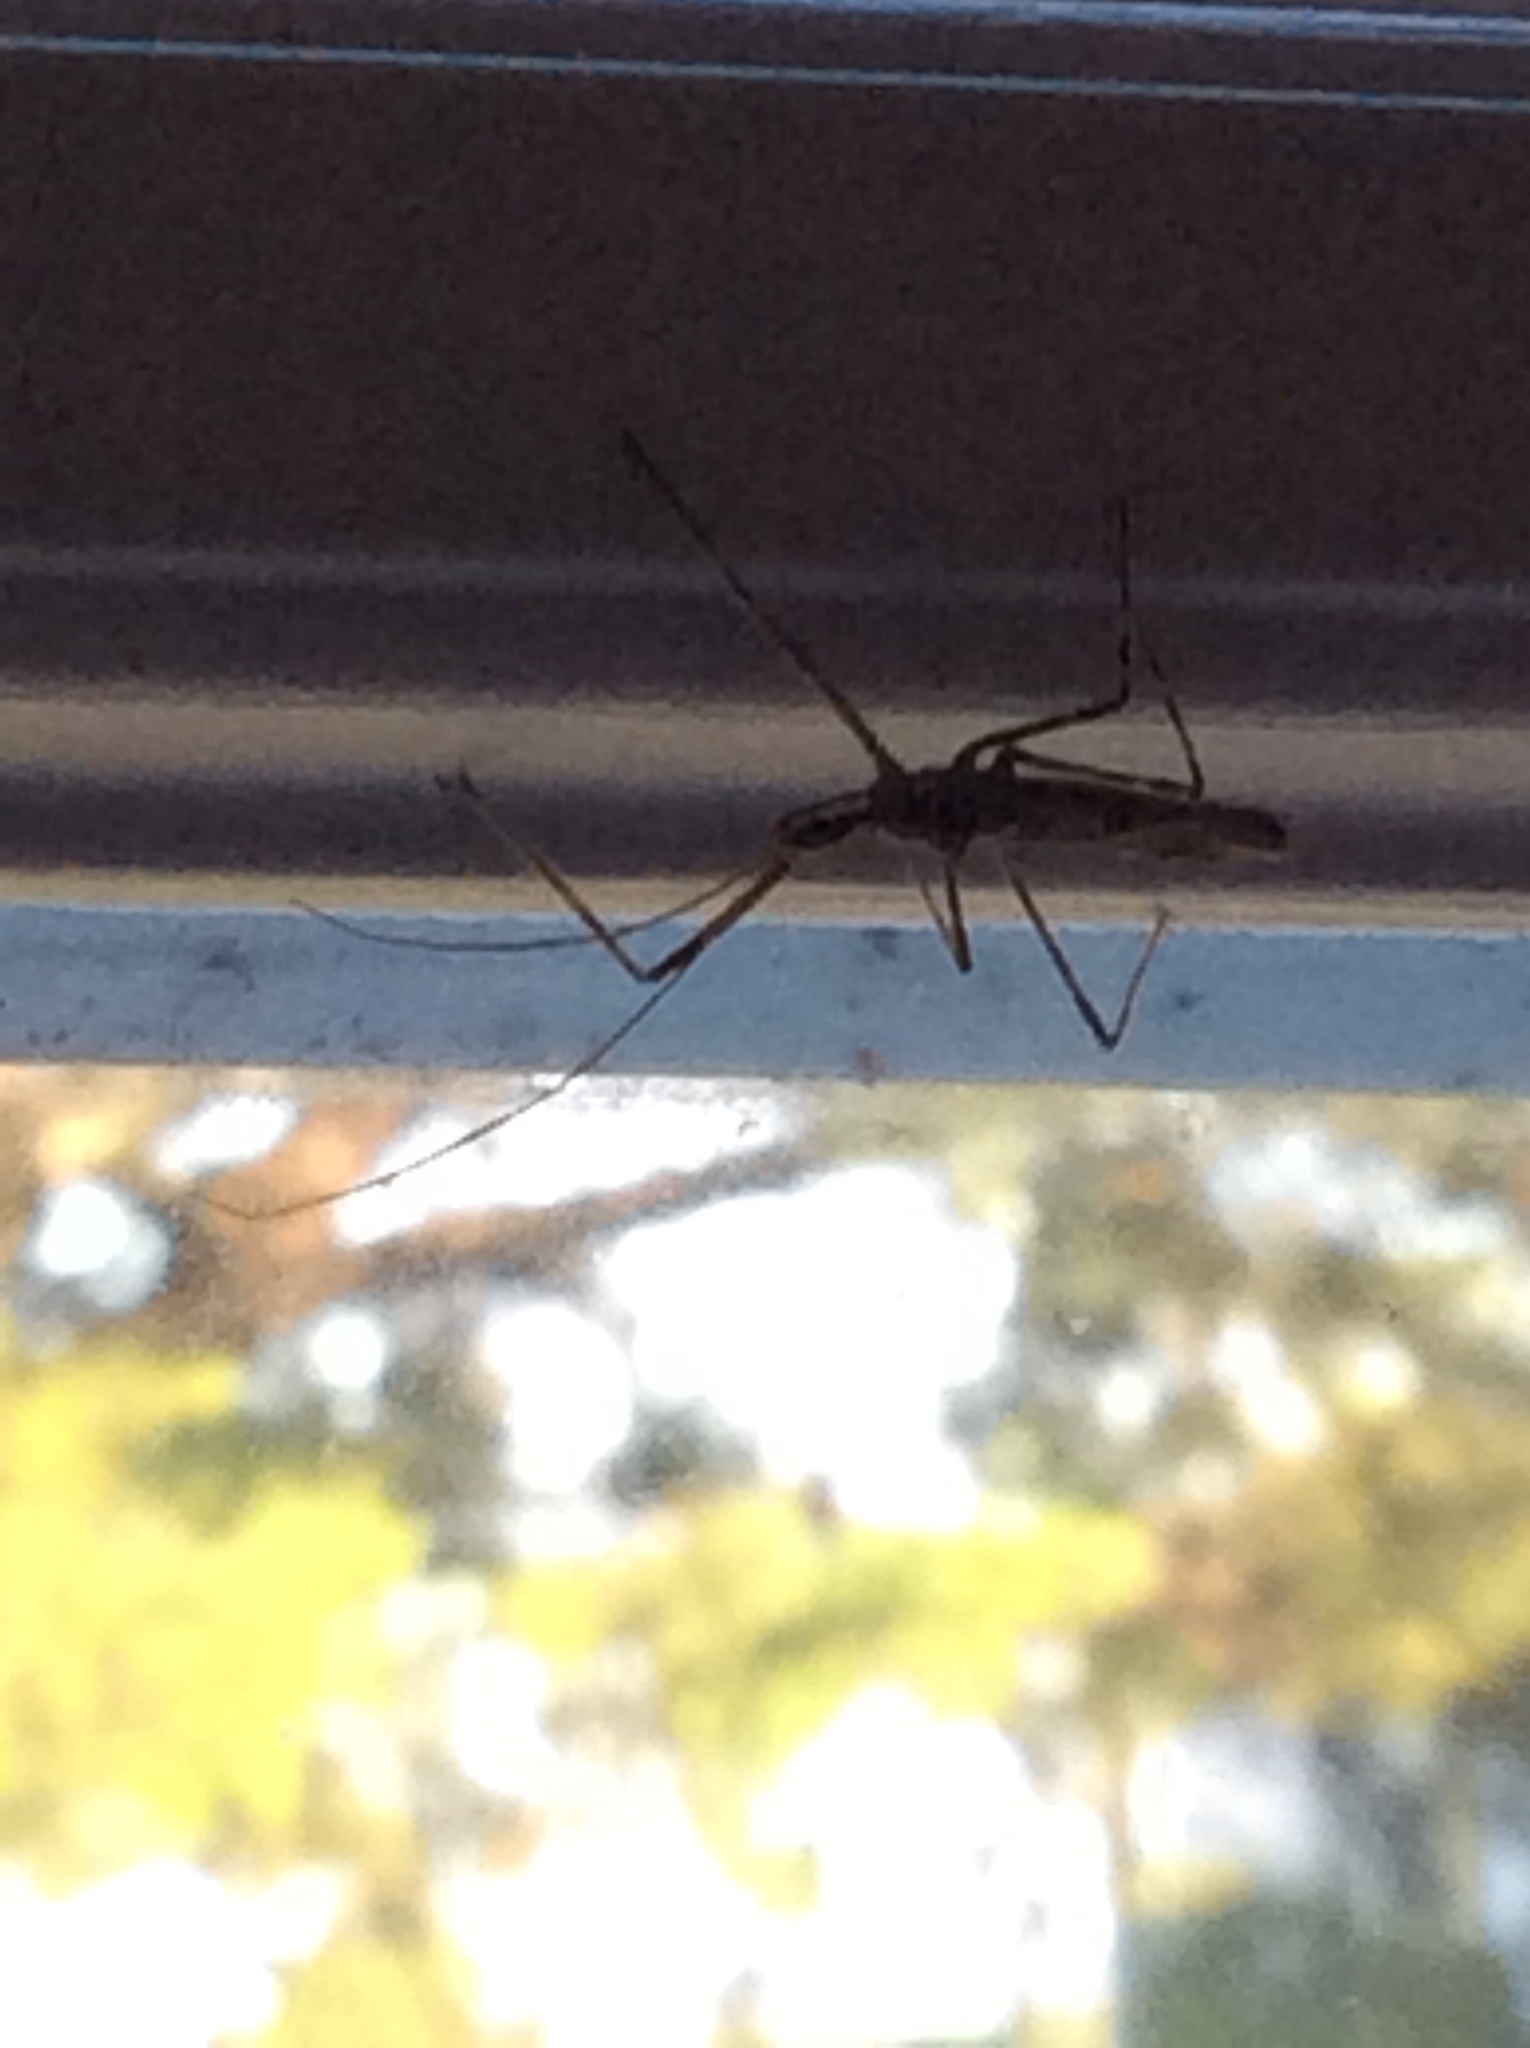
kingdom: Animalia
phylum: Arthropoda
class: Insecta
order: Hemiptera
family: Reduviidae
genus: Zelus
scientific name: Zelus tetracanthus
